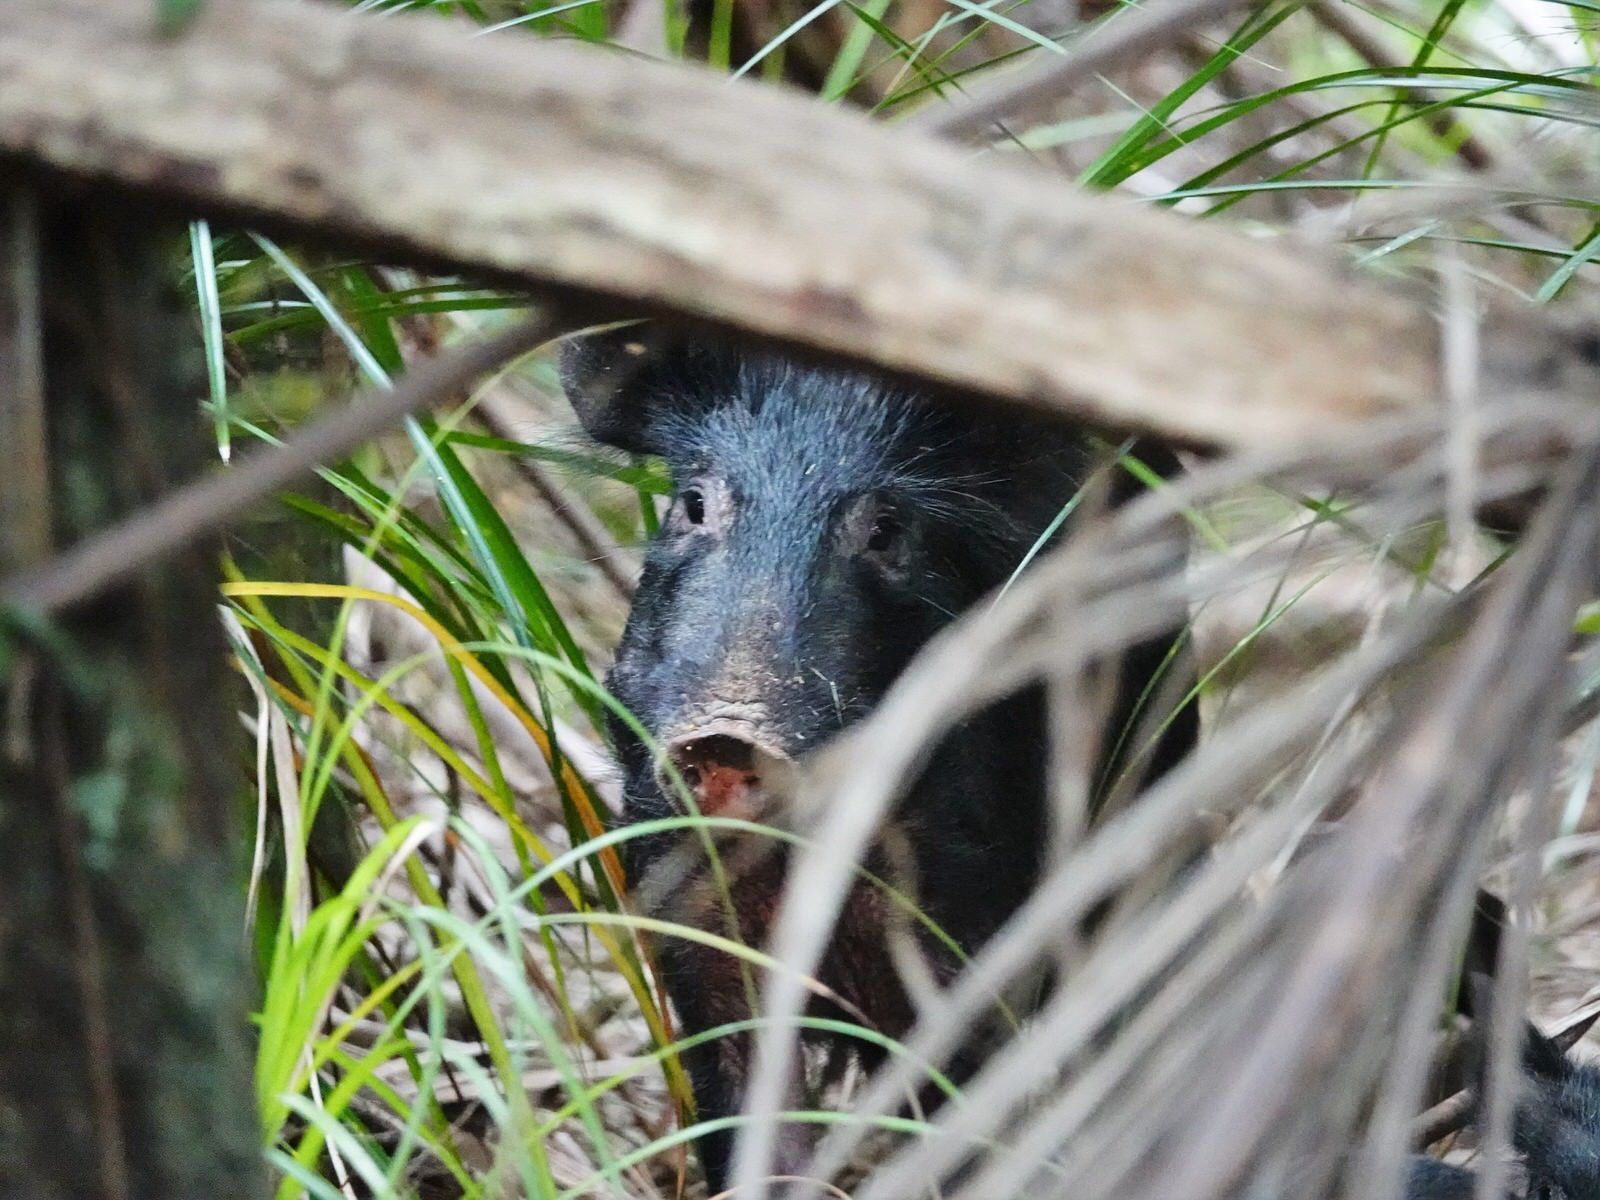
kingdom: Animalia
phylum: Chordata
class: Mammalia
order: Artiodactyla
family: Suidae
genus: Sus
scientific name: Sus scrofa
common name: Wild boar
